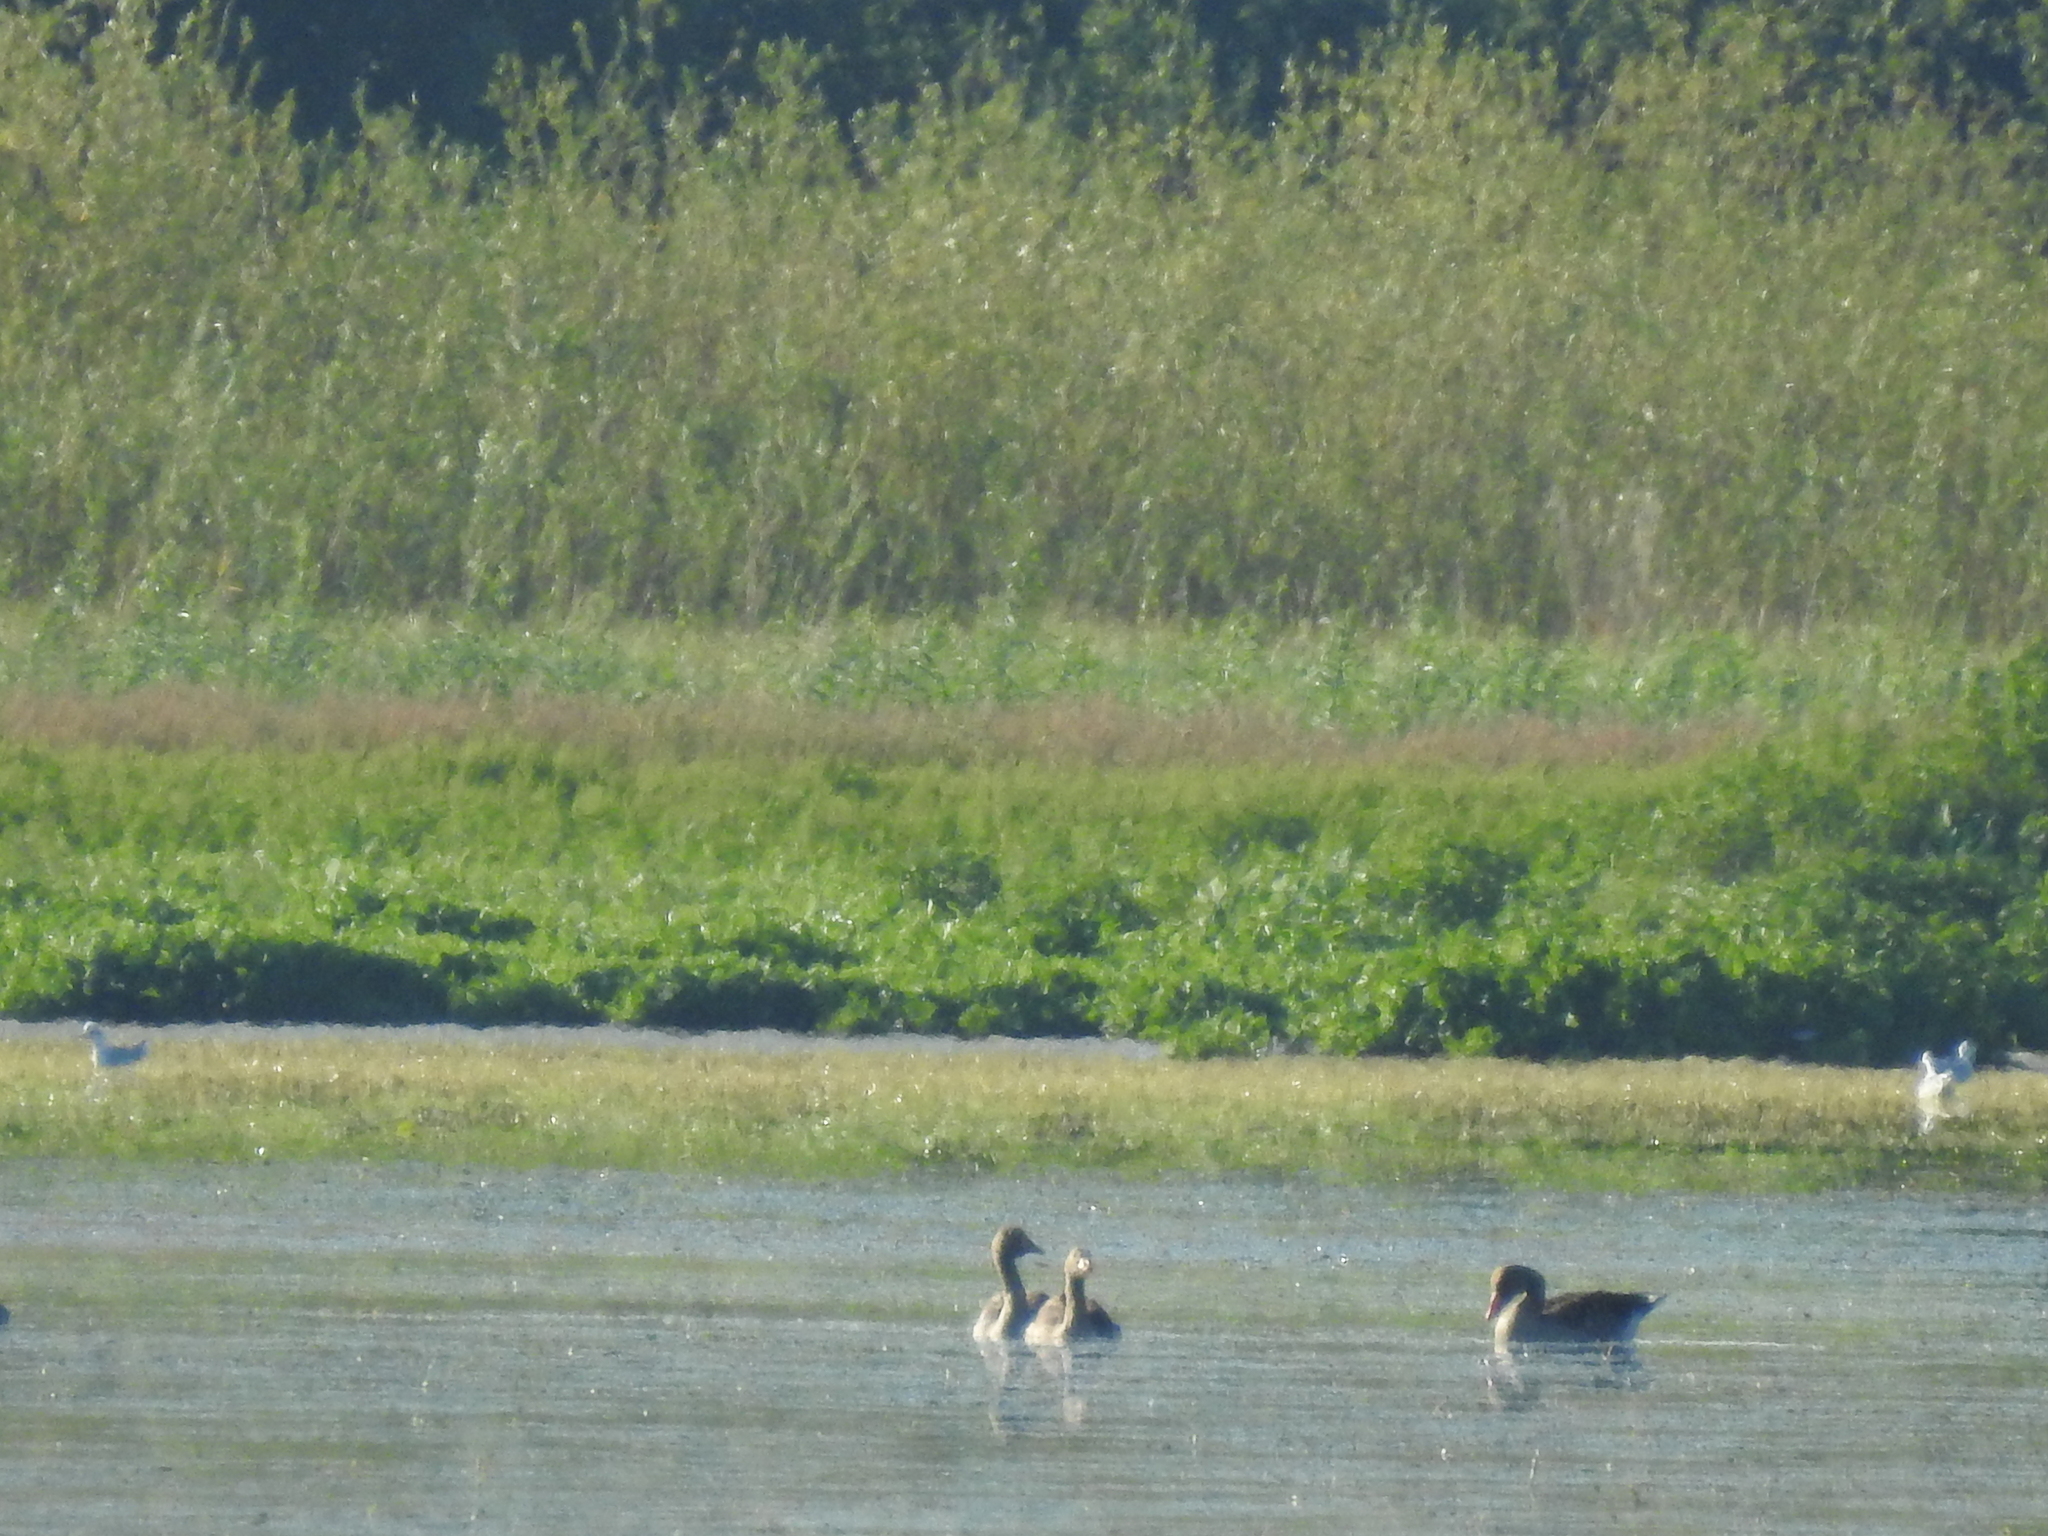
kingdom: Animalia
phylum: Chordata
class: Aves
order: Anseriformes
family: Anatidae
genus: Anser
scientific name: Anser anser
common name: Greylag goose
